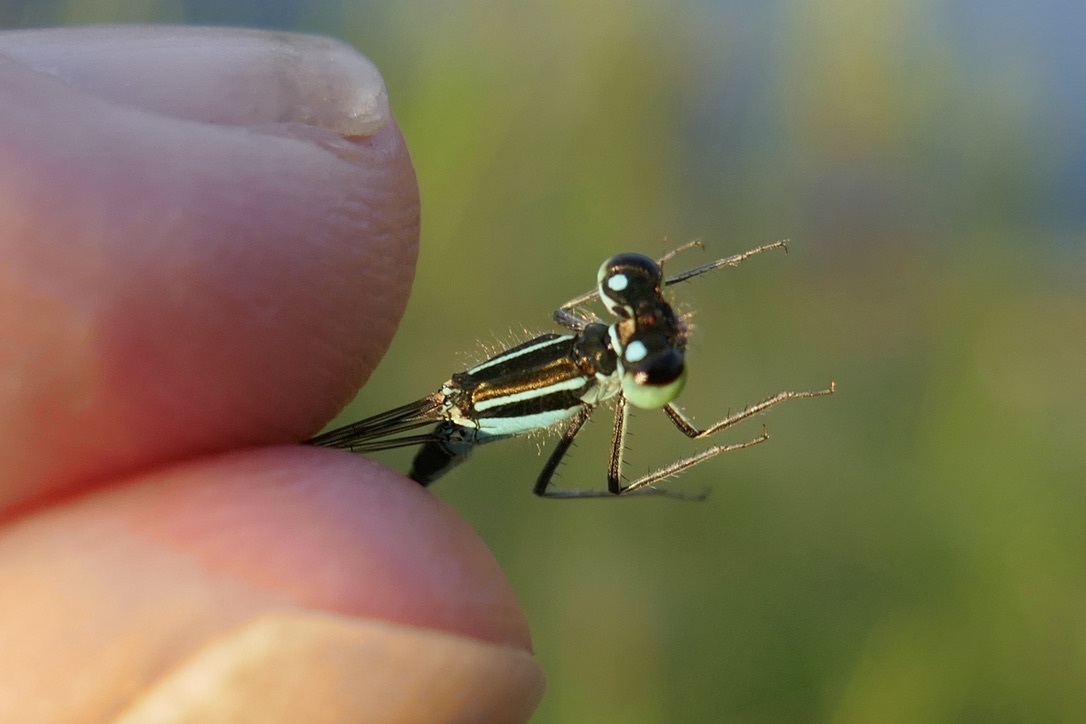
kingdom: Animalia
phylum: Arthropoda
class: Insecta
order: Odonata
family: Coenagrionidae
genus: Ischnura
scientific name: Ischnura elegans
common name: Blue-tailed damselfly
